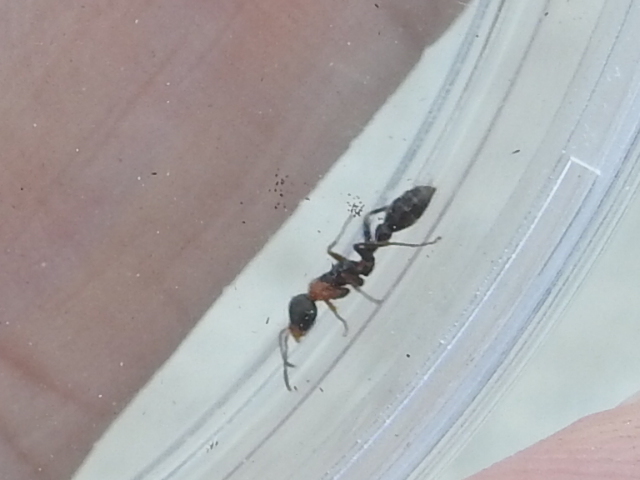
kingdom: Animalia
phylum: Arthropoda
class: Insecta
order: Hymenoptera
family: Formicidae
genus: Pseudomyrmex
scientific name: Pseudomyrmex gracilis
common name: Graceful twig ant
